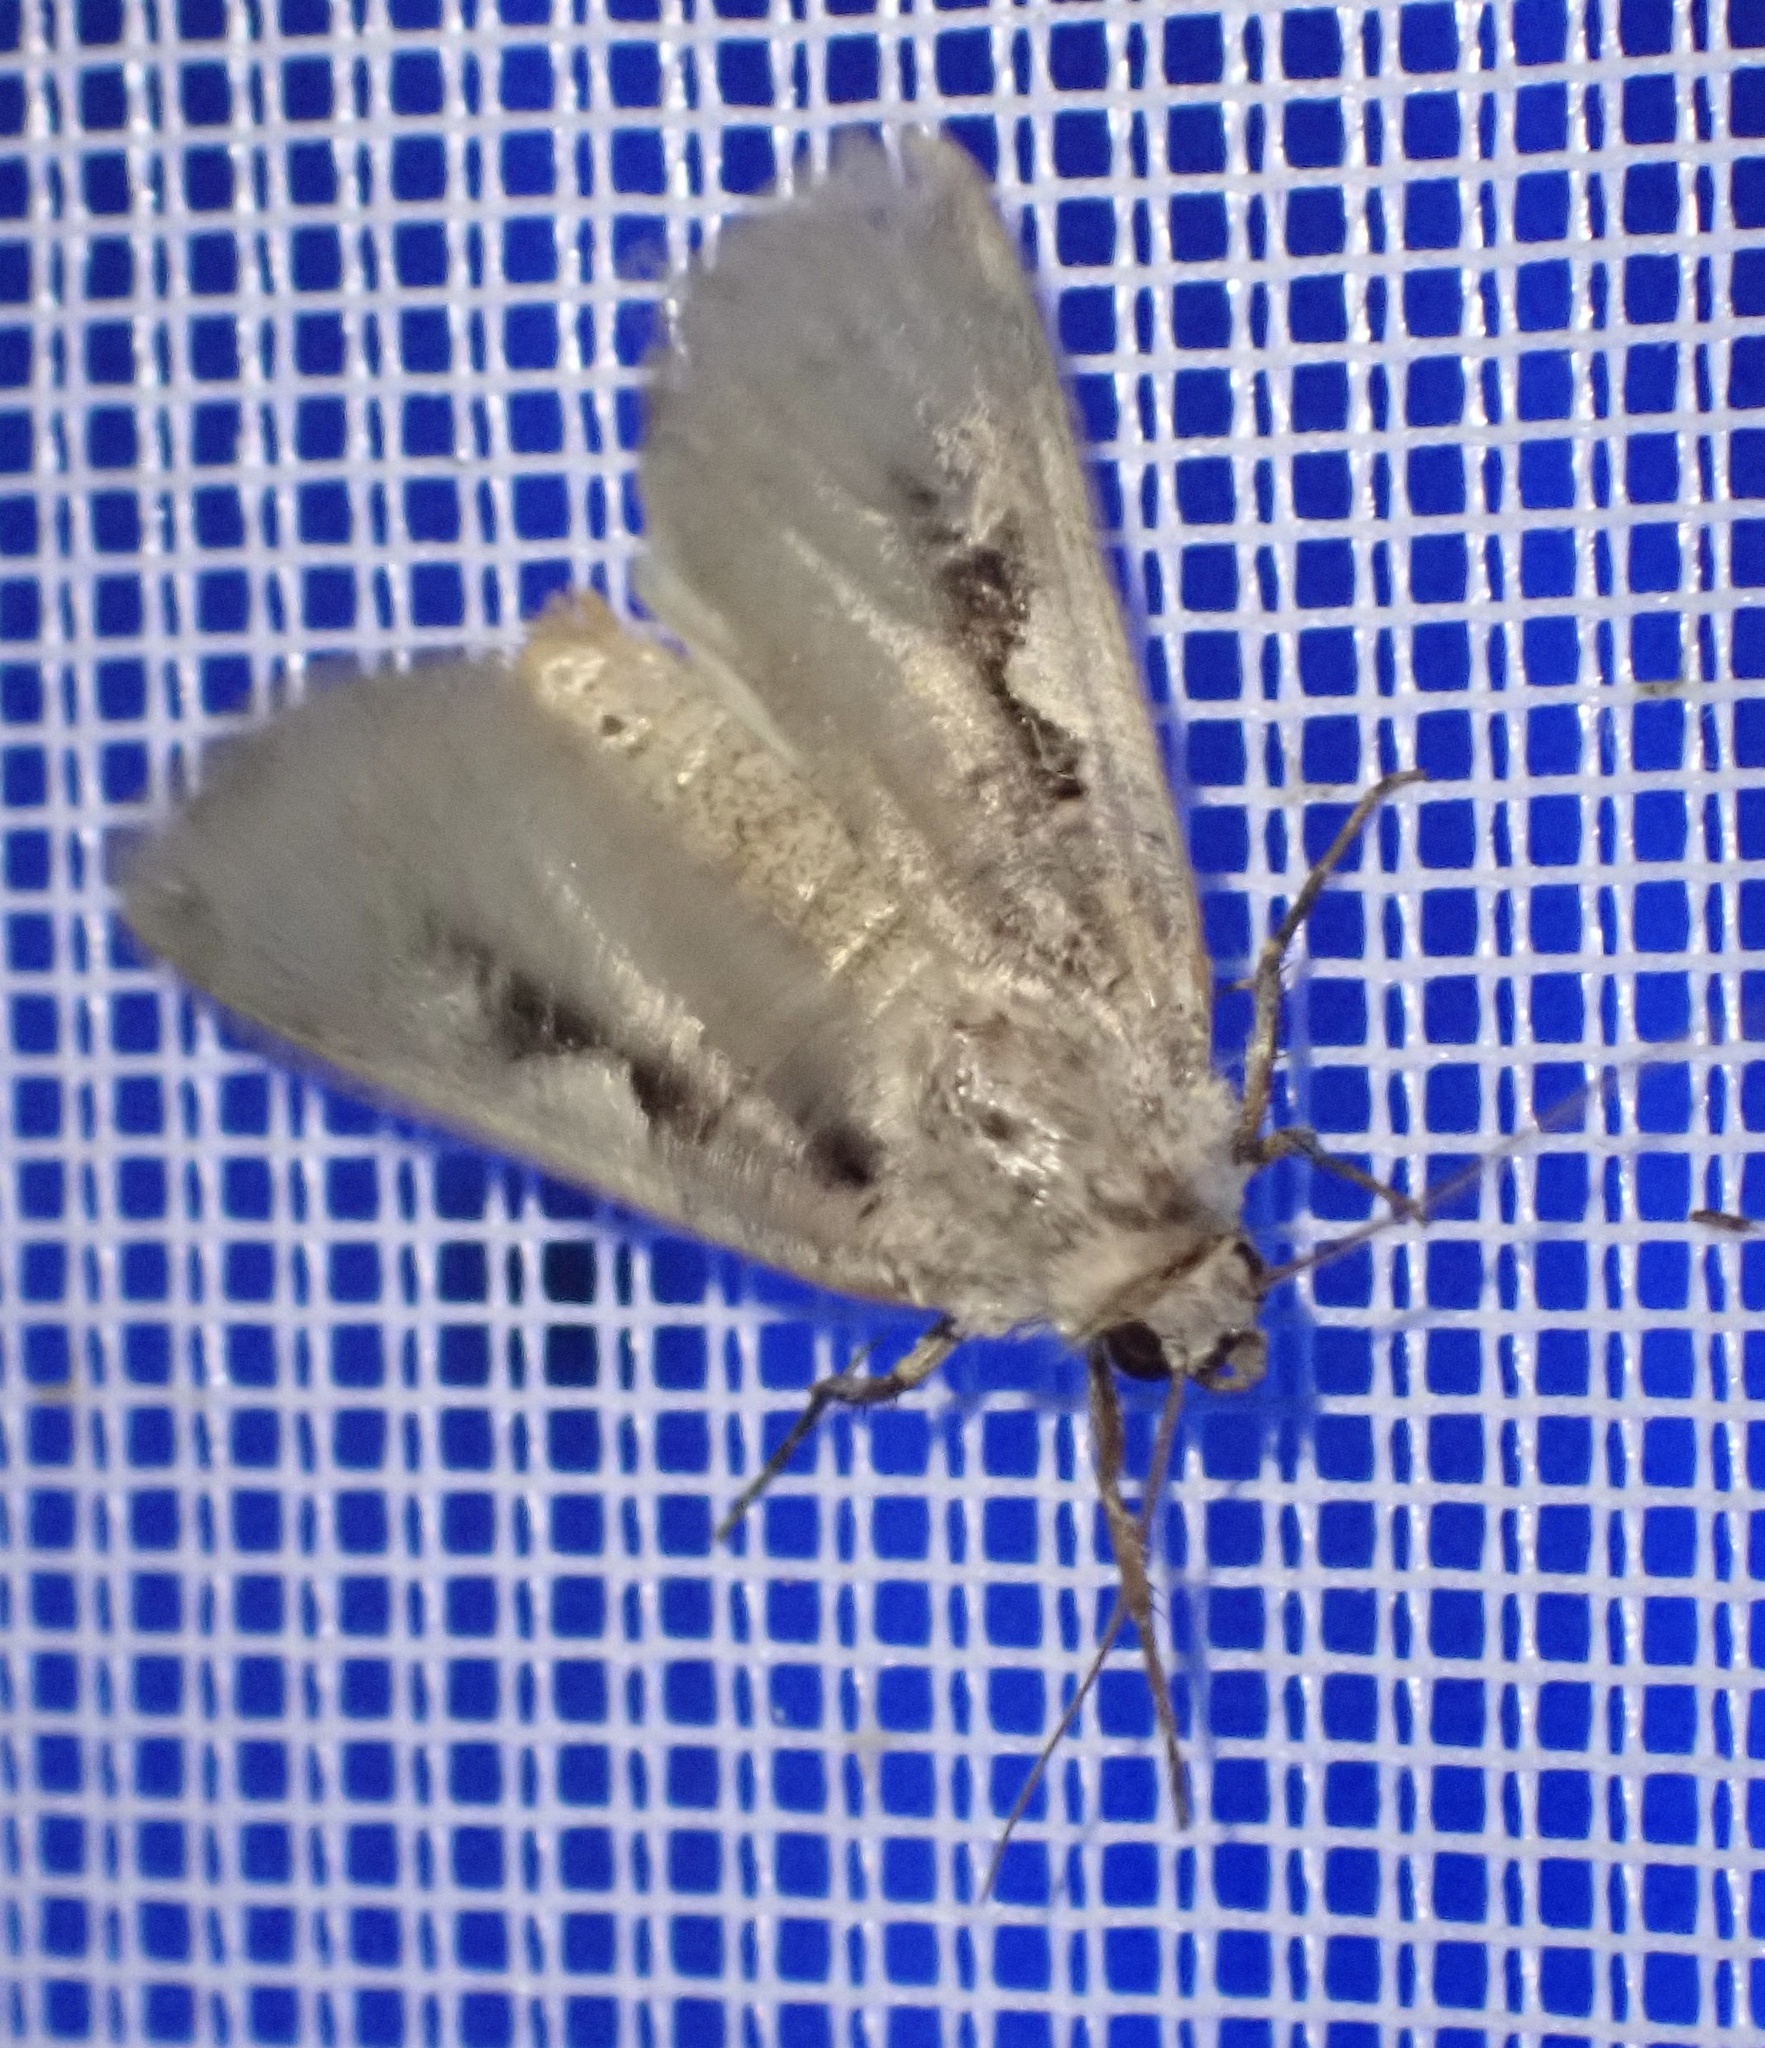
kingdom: Animalia
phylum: Arthropoda
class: Insecta
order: Lepidoptera
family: Noctuidae
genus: Xestia
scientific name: Xestia c-nigrum
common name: Setaceous hebrew character
